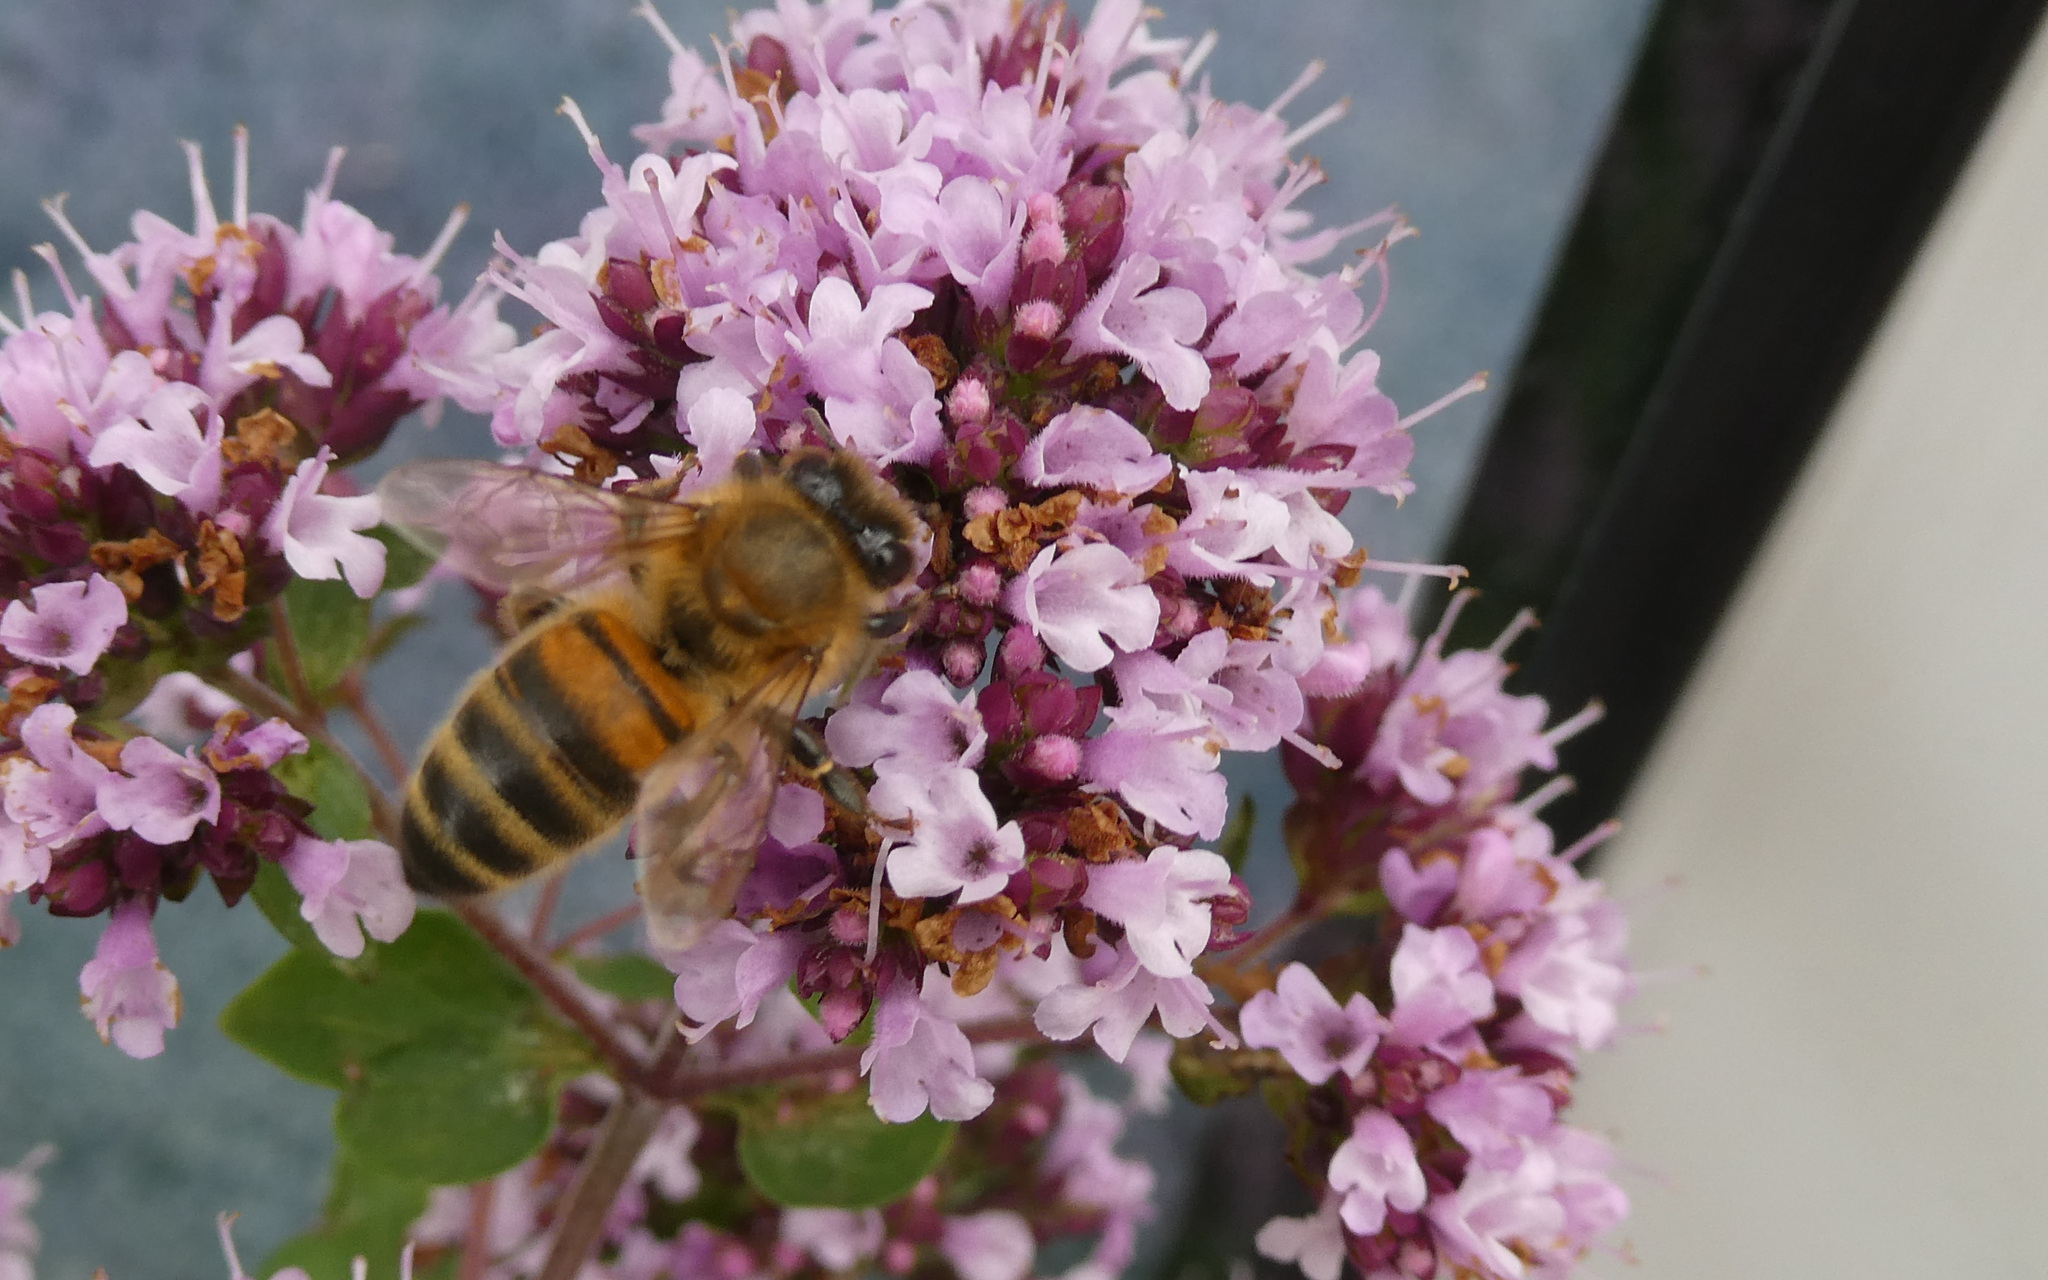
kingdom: Animalia
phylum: Arthropoda
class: Insecta
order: Hymenoptera
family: Apidae
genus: Apis
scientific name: Apis mellifera
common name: Honey bee
